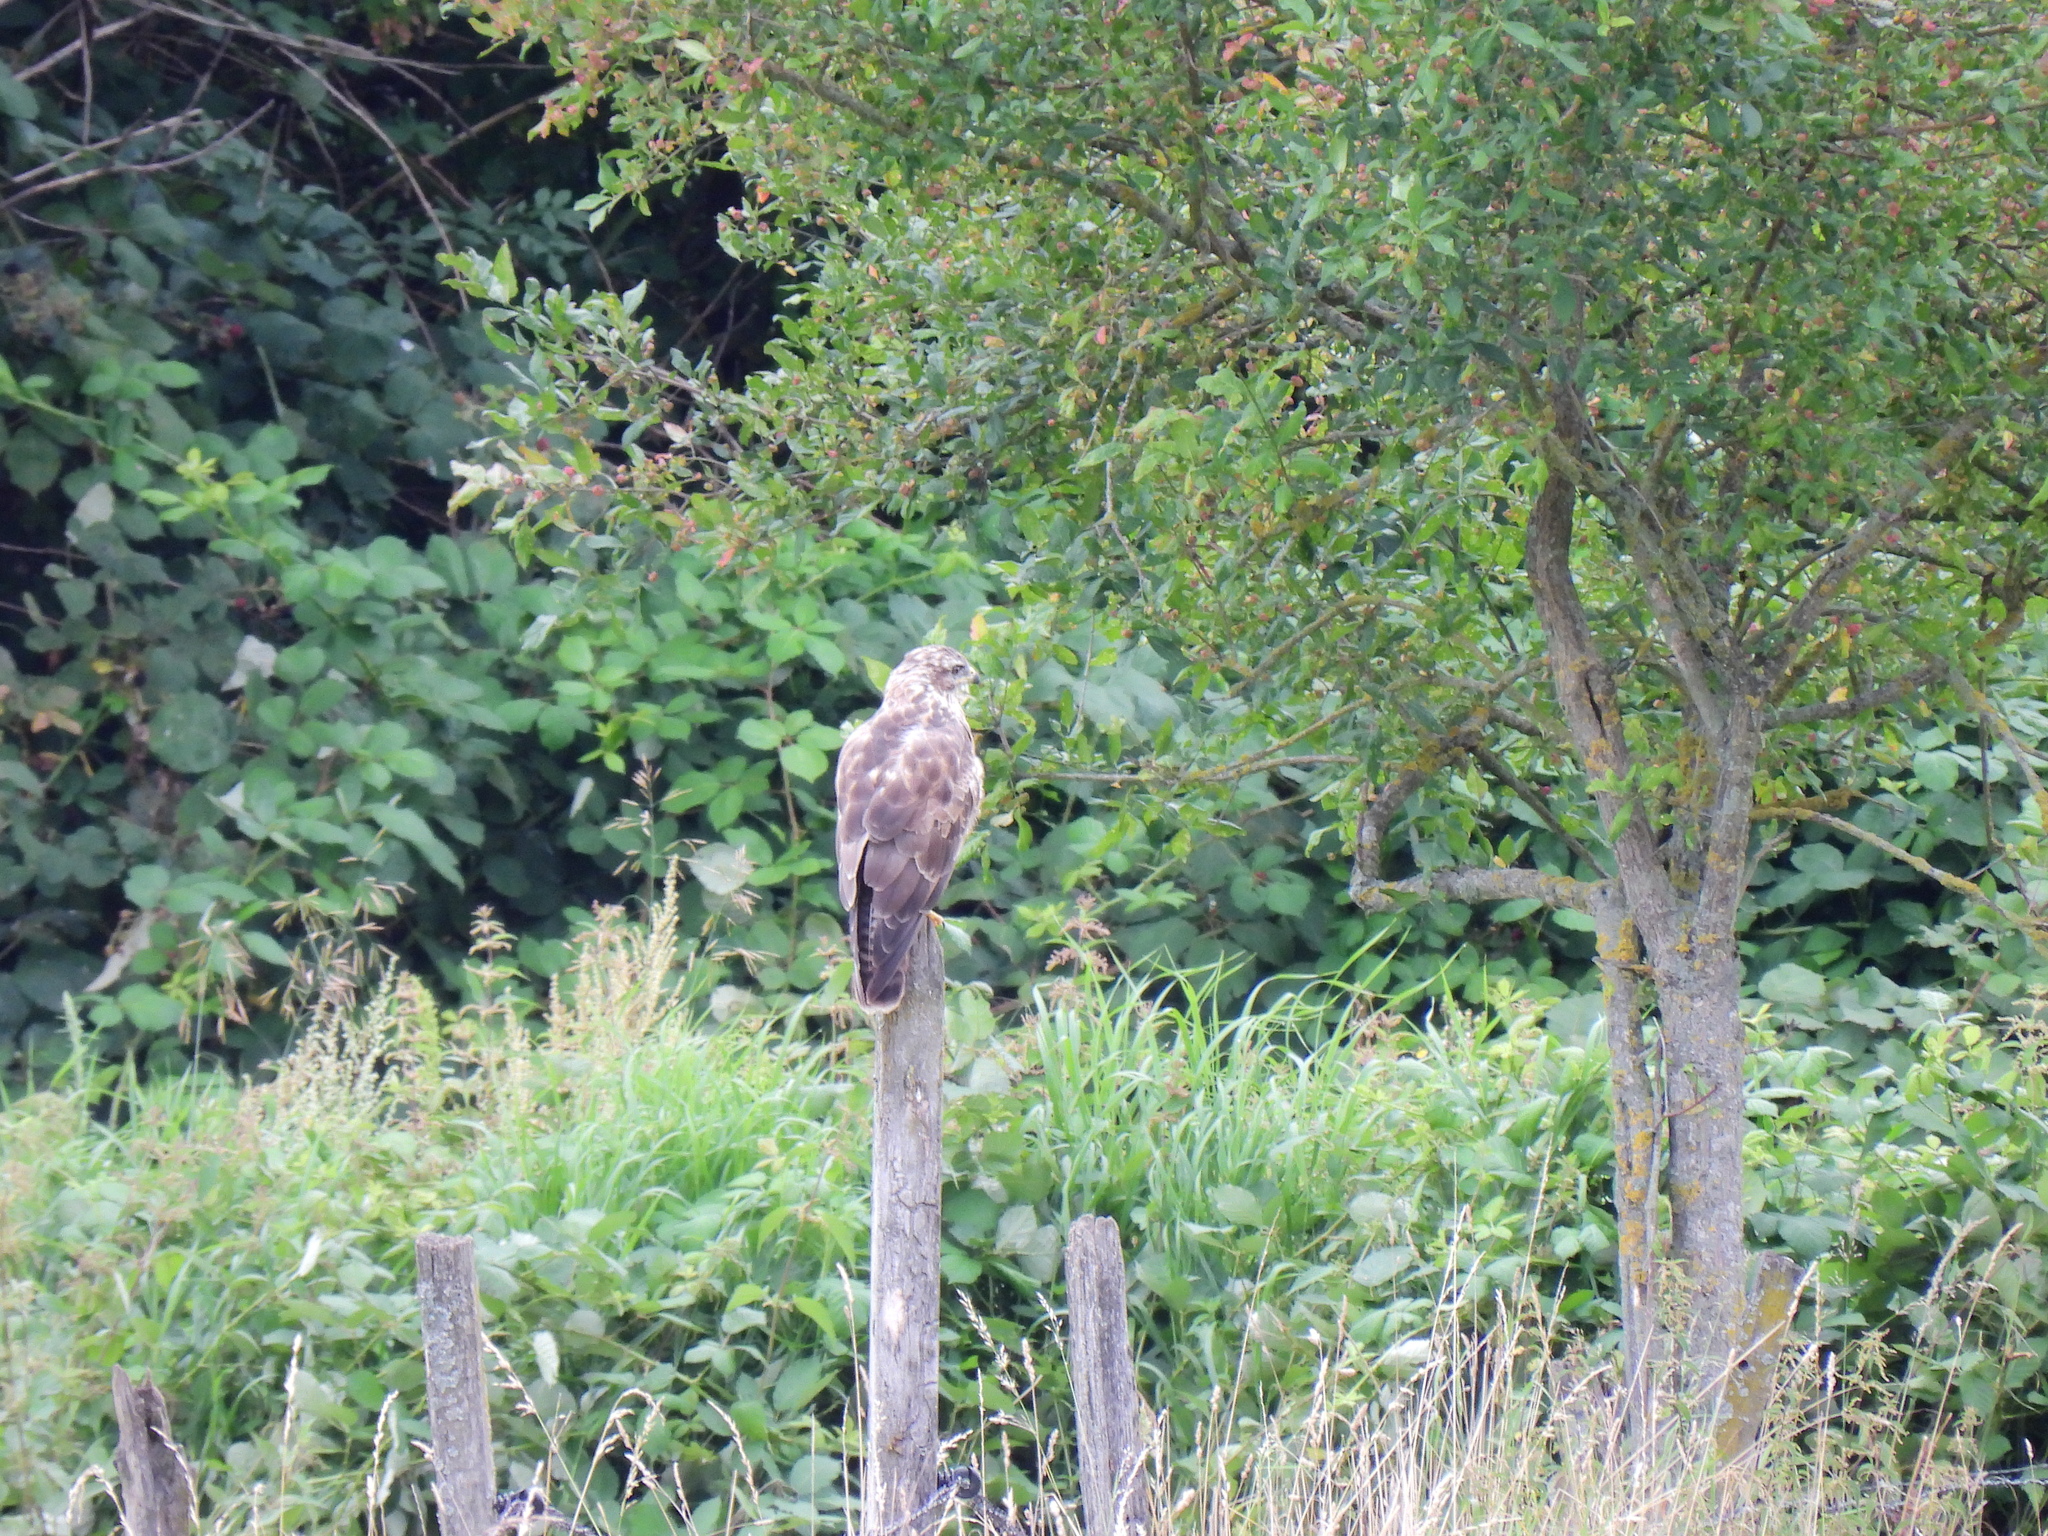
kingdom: Animalia
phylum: Chordata
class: Aves
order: Accipitriformes
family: Accipitridae
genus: Buteo
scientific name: Buteo buteo
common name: Common buzzard
